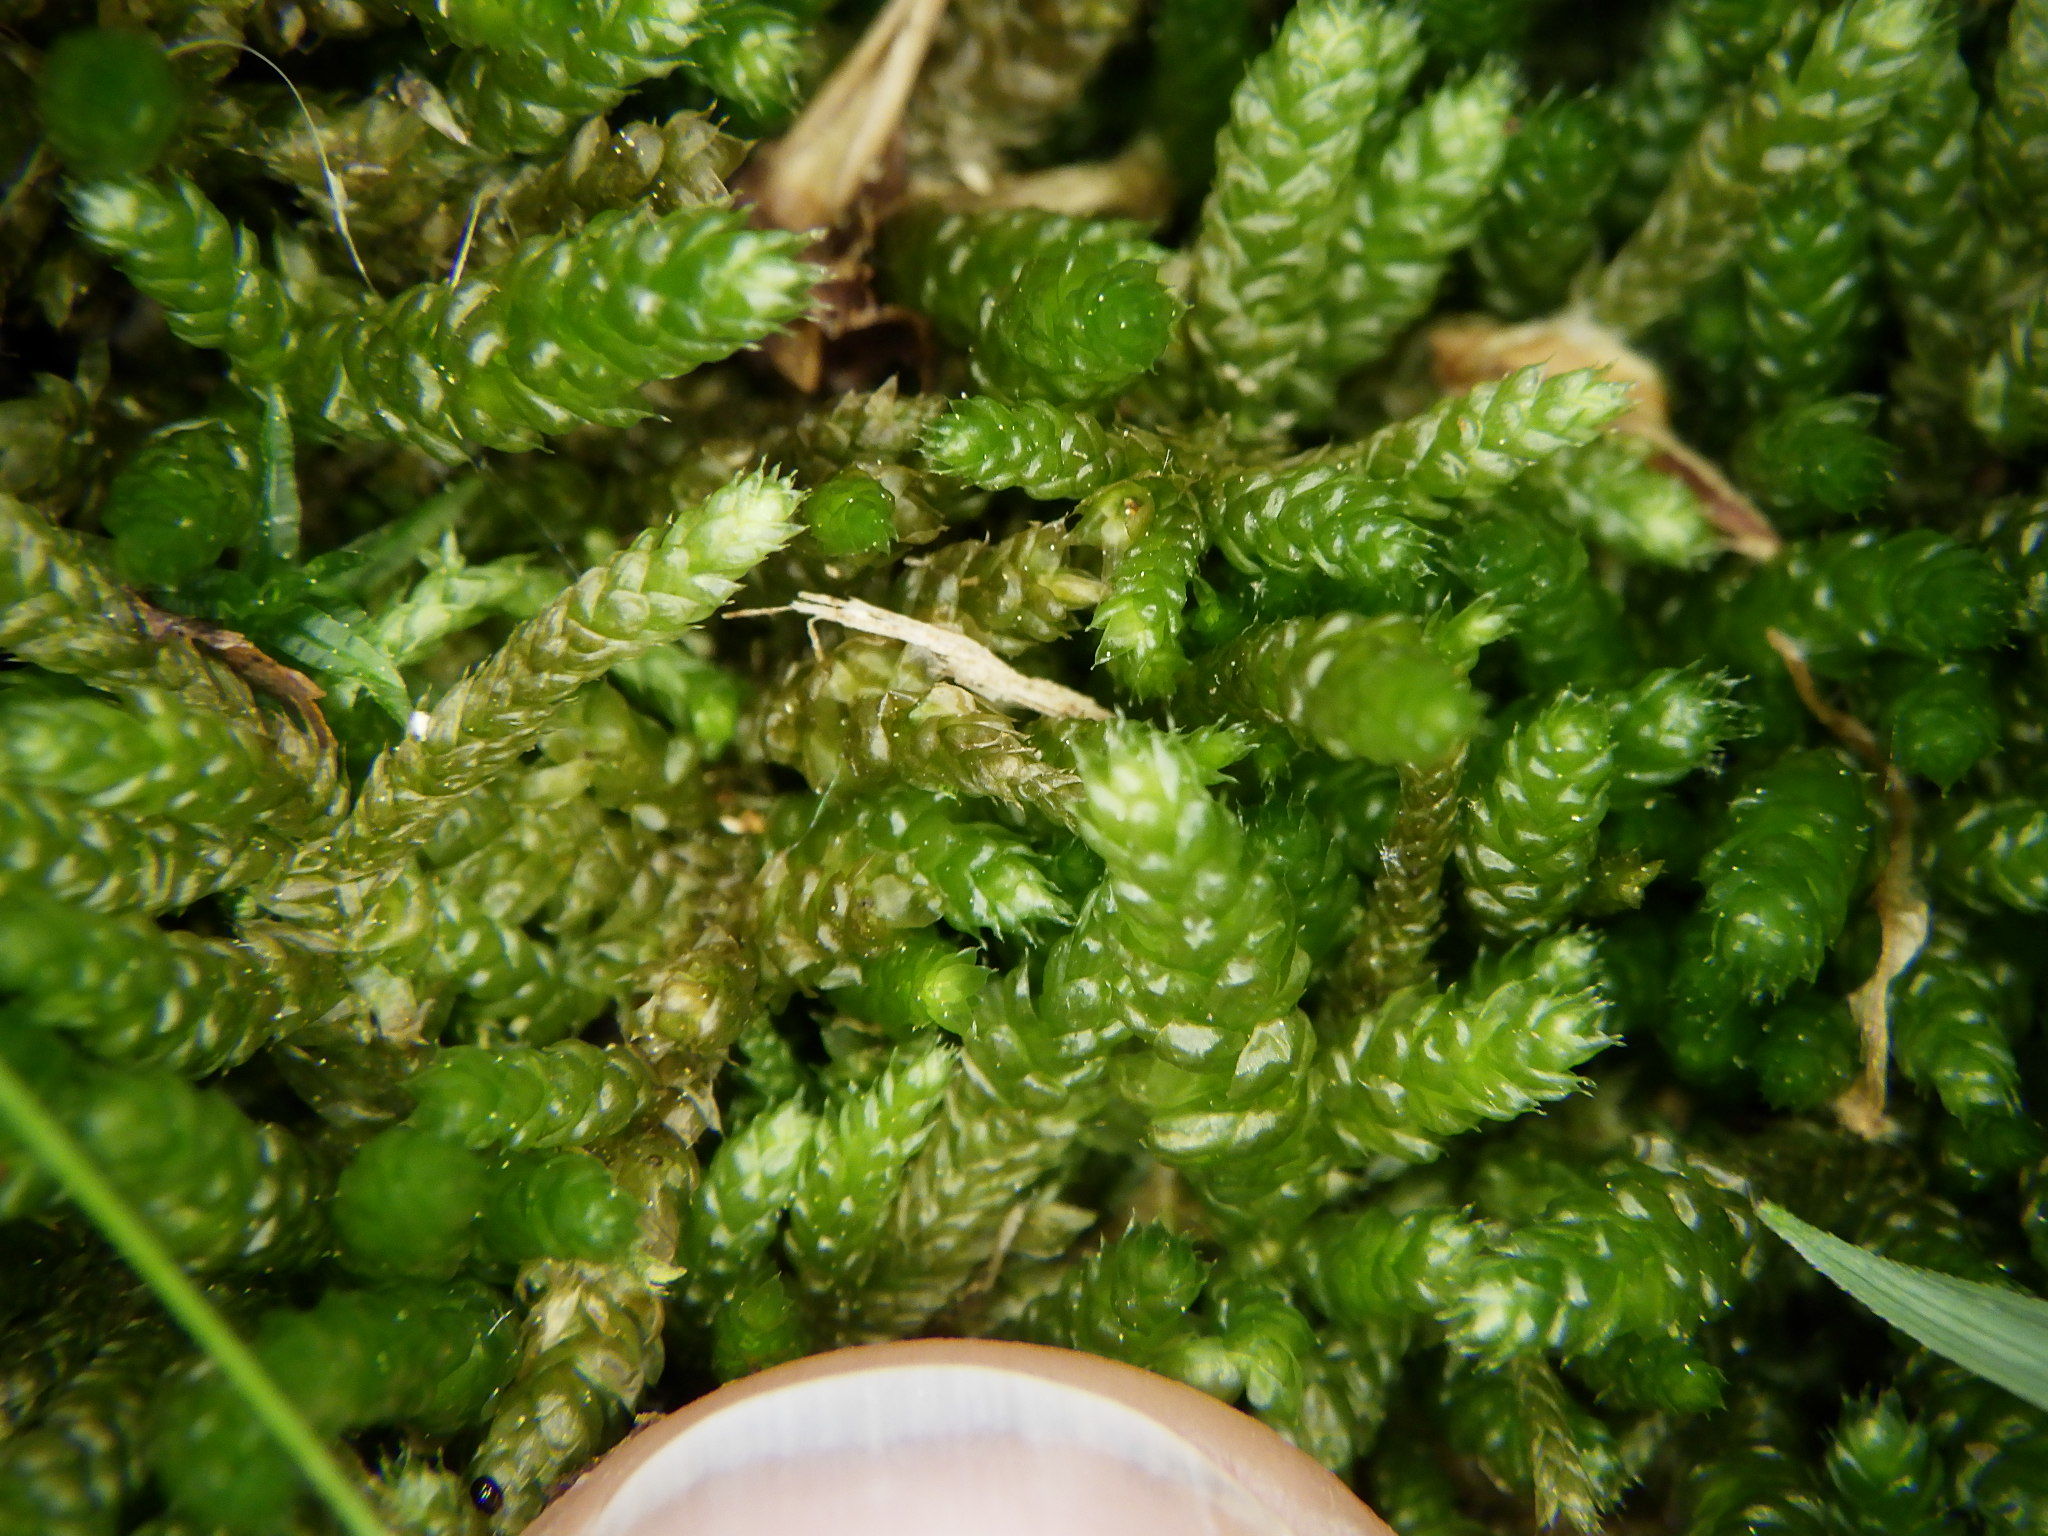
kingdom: Plantae
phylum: Bryophyta
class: Bryopsida
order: Hypnales
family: Brachytheciaceae
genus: Bryoandersonia
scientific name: Bryoandersonia illecebra
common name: Spoon-leaved moss
